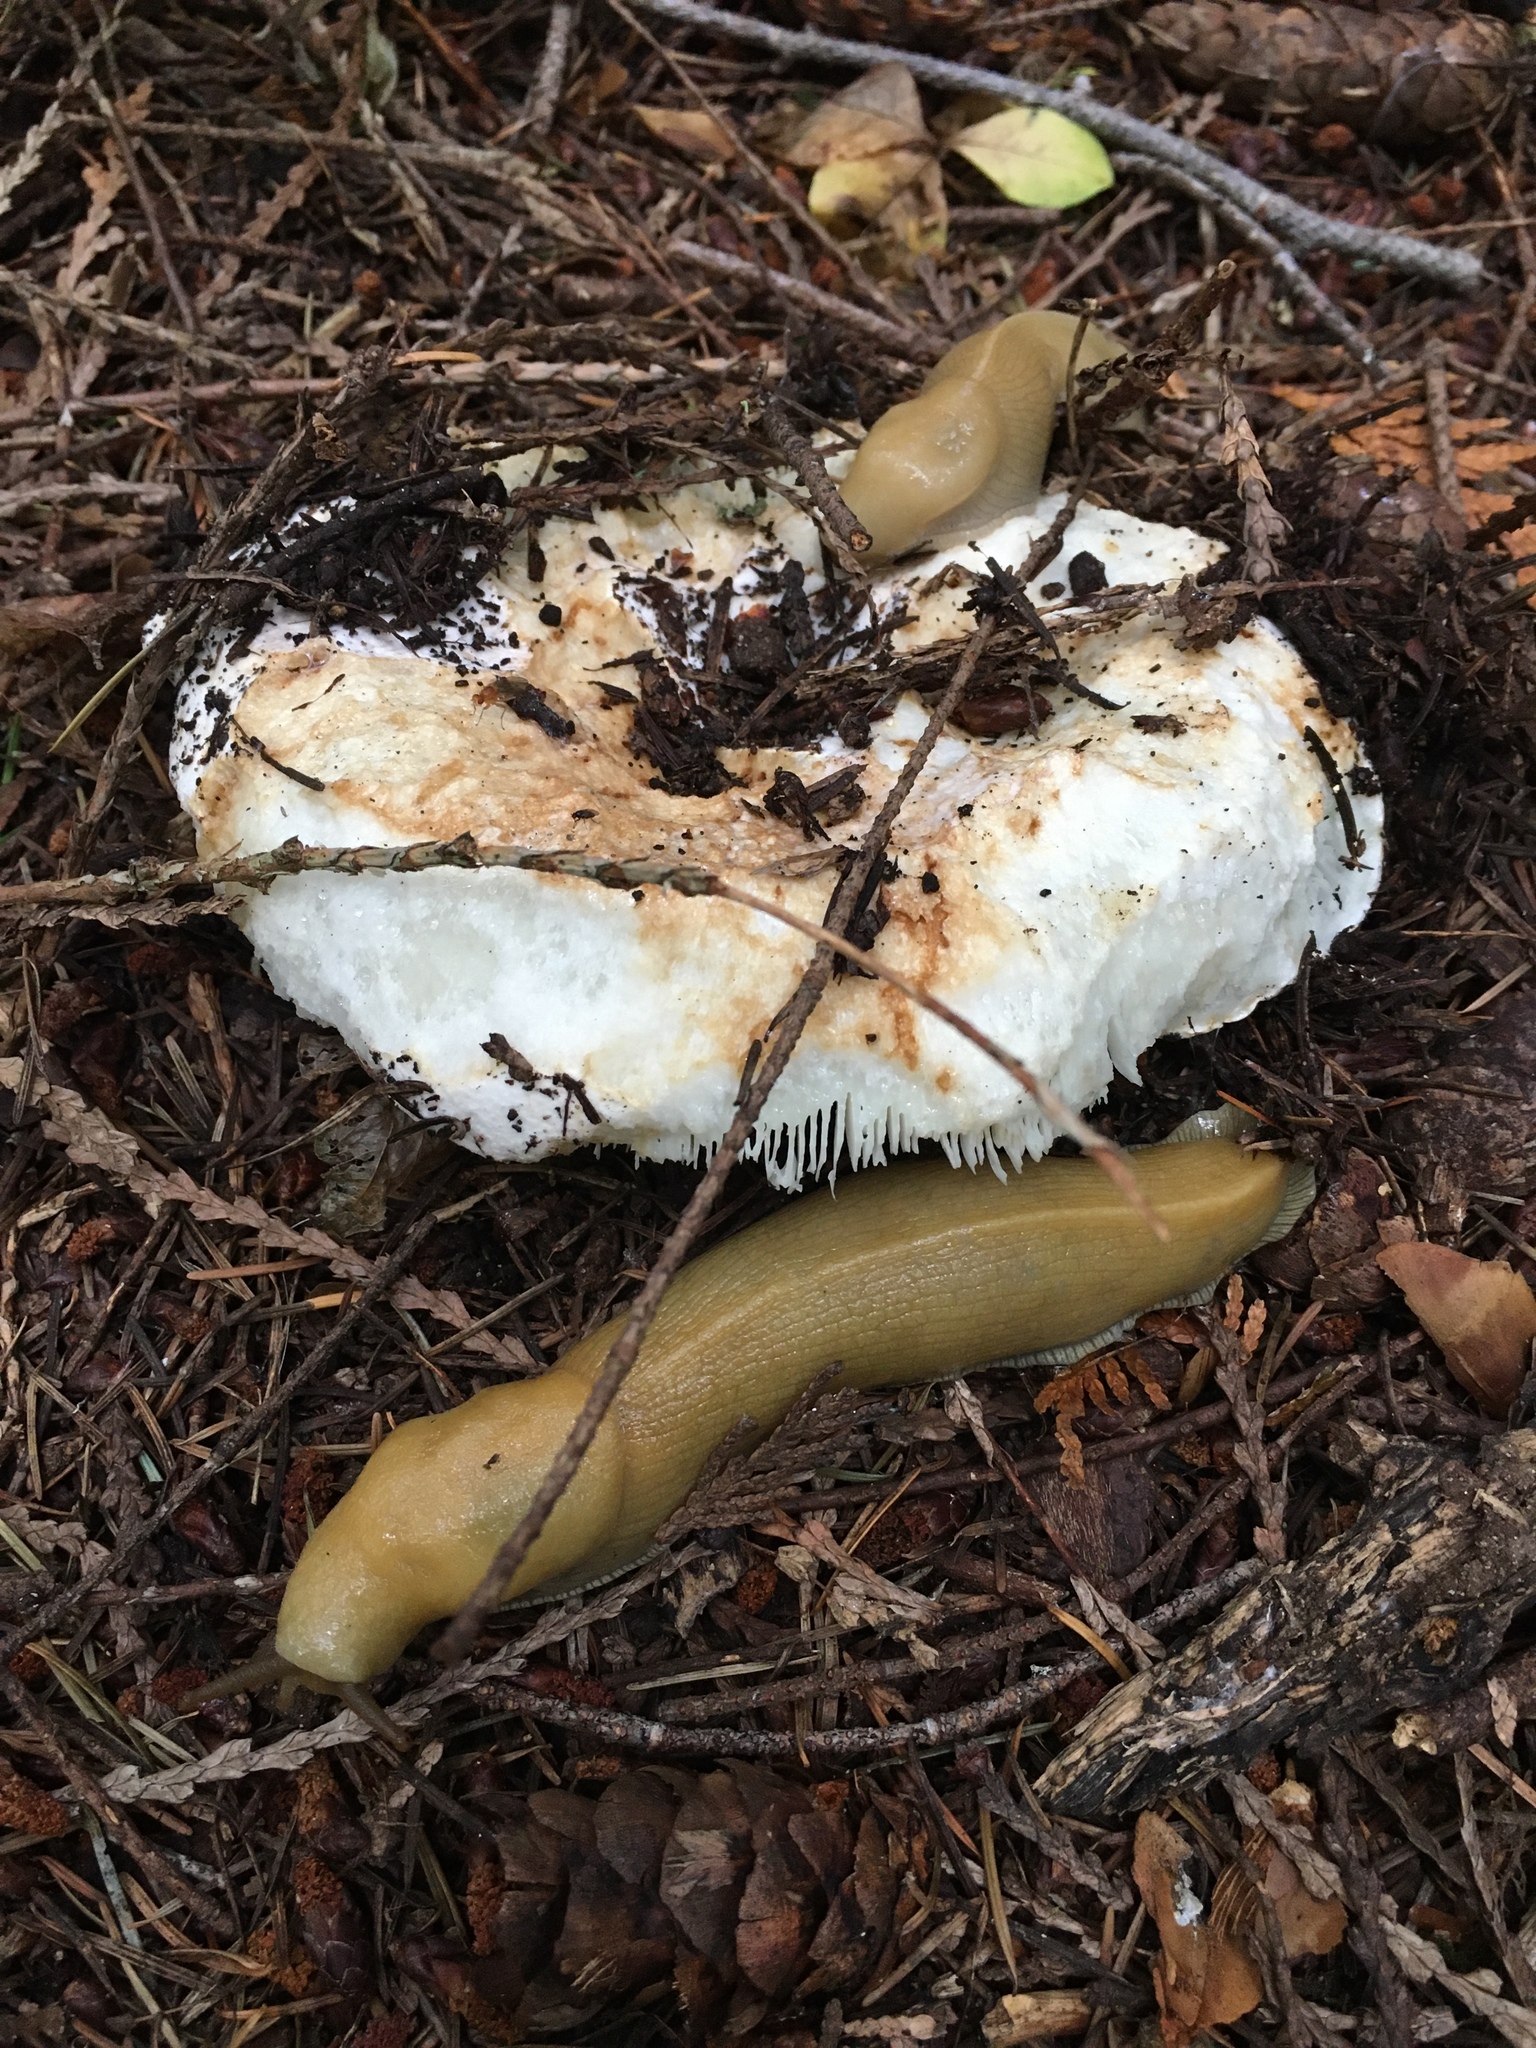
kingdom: Animalia
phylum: Mollusca
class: Gastropoda
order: Stylommatophora
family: Ariolimacidae
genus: Ariolimax
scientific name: Ariolimax columbianus
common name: Pacific banana slug
